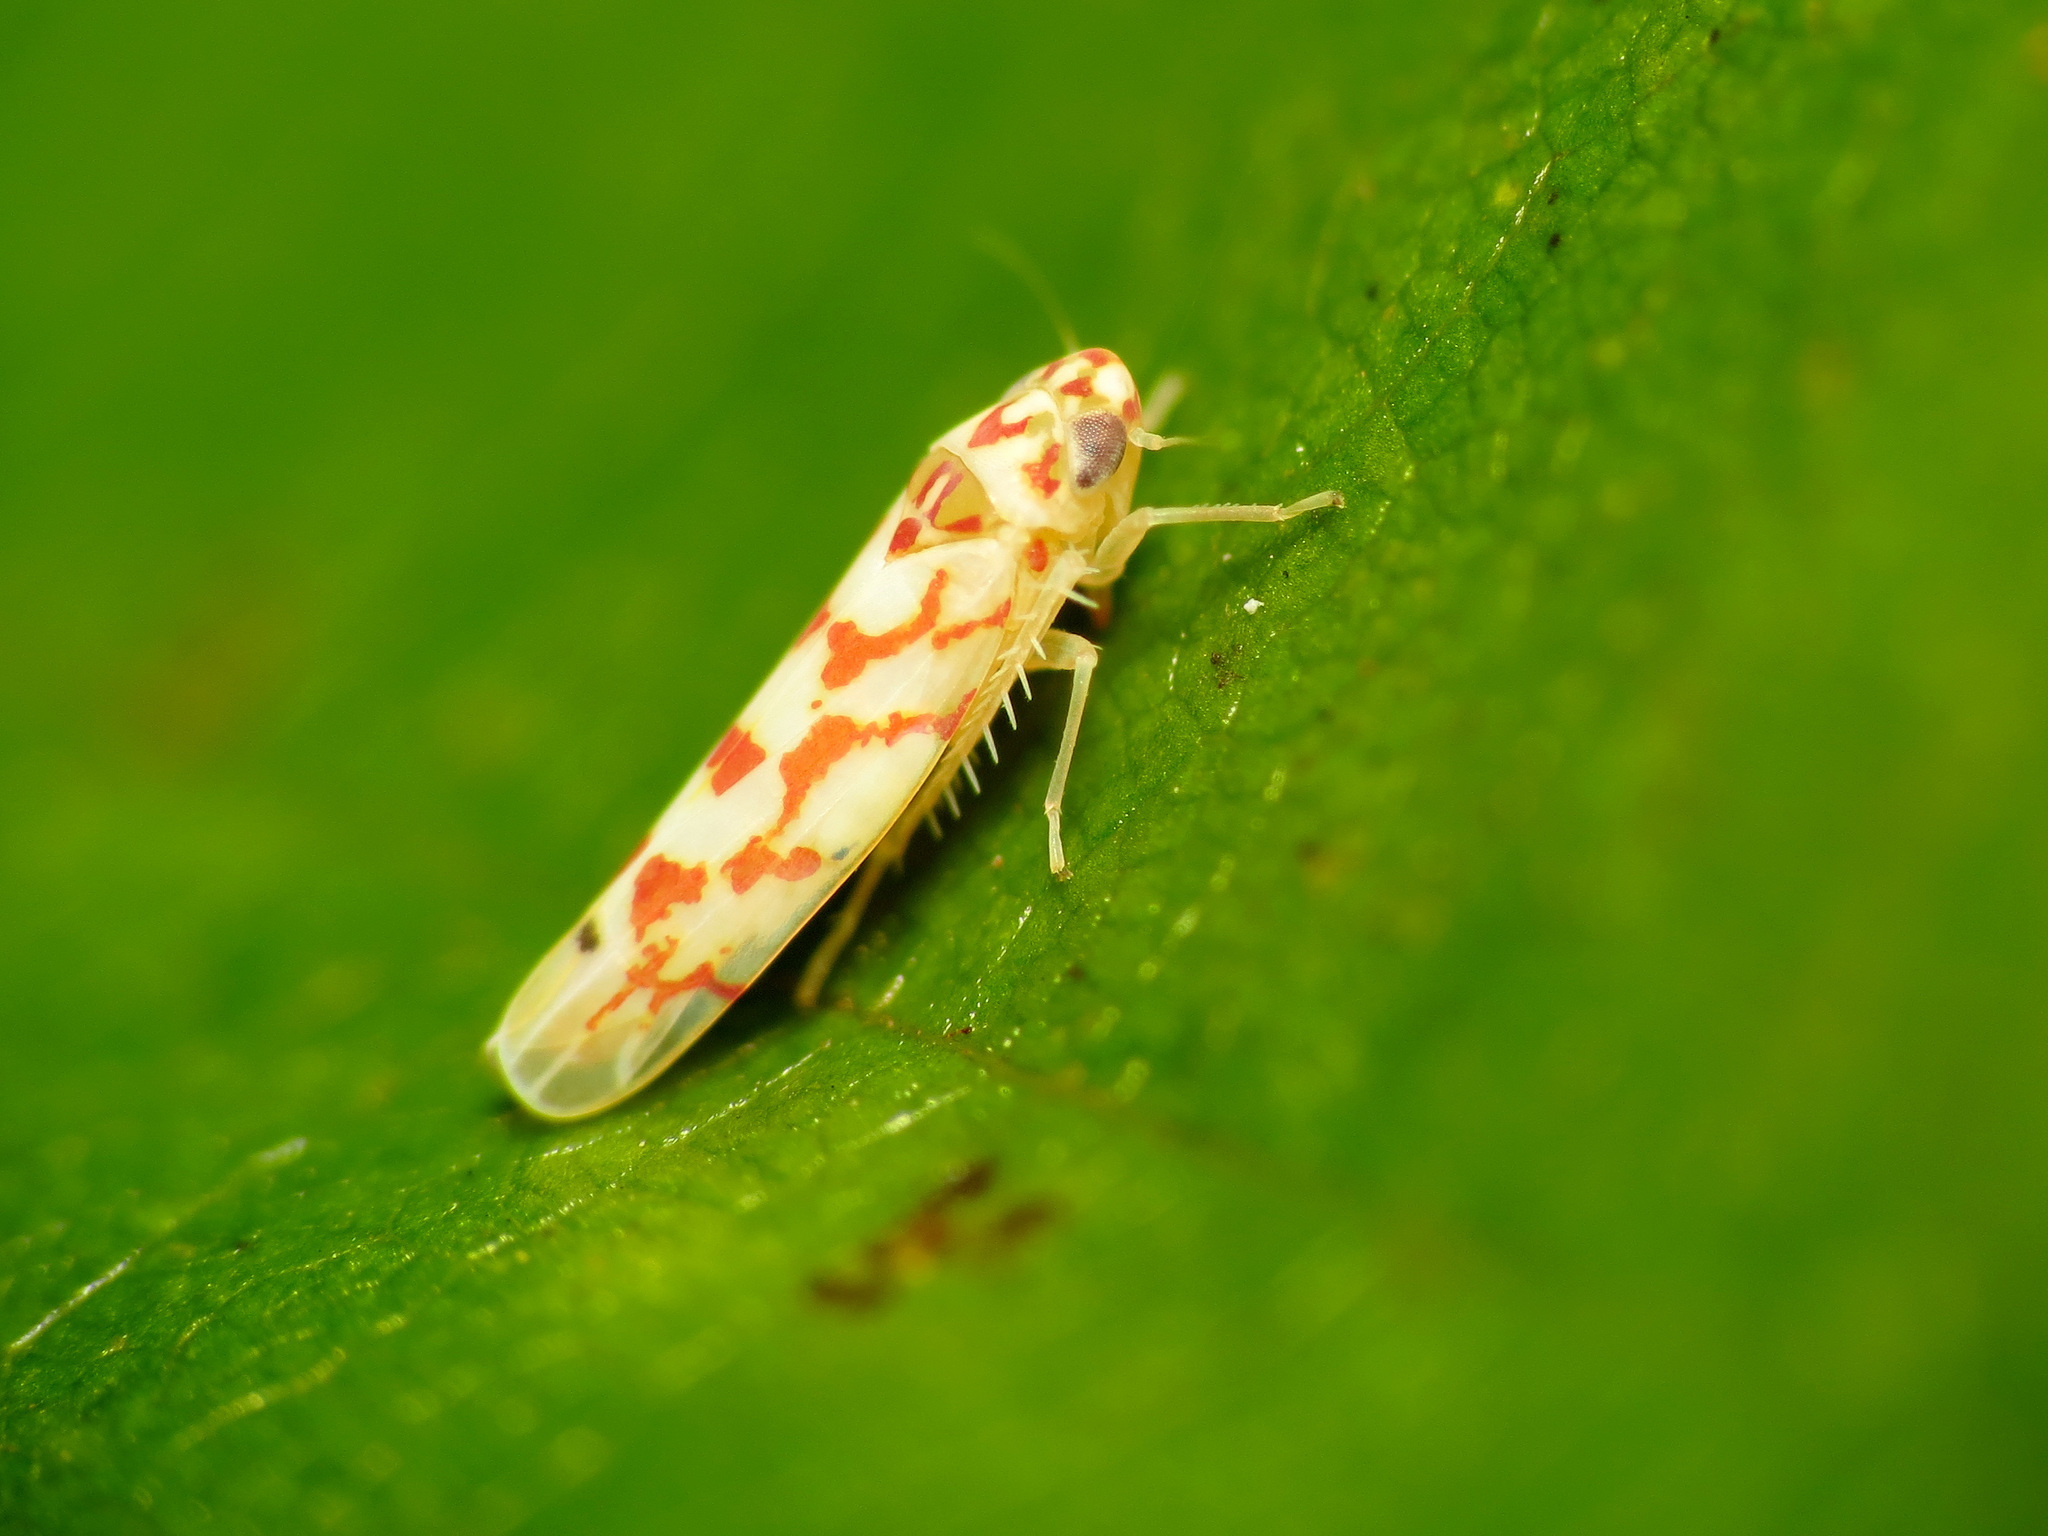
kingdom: Animalia
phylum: Arthropoda
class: Insecta
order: Hemiptera
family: Cicadellidae
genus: Eratoneura
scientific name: Eratoneura
